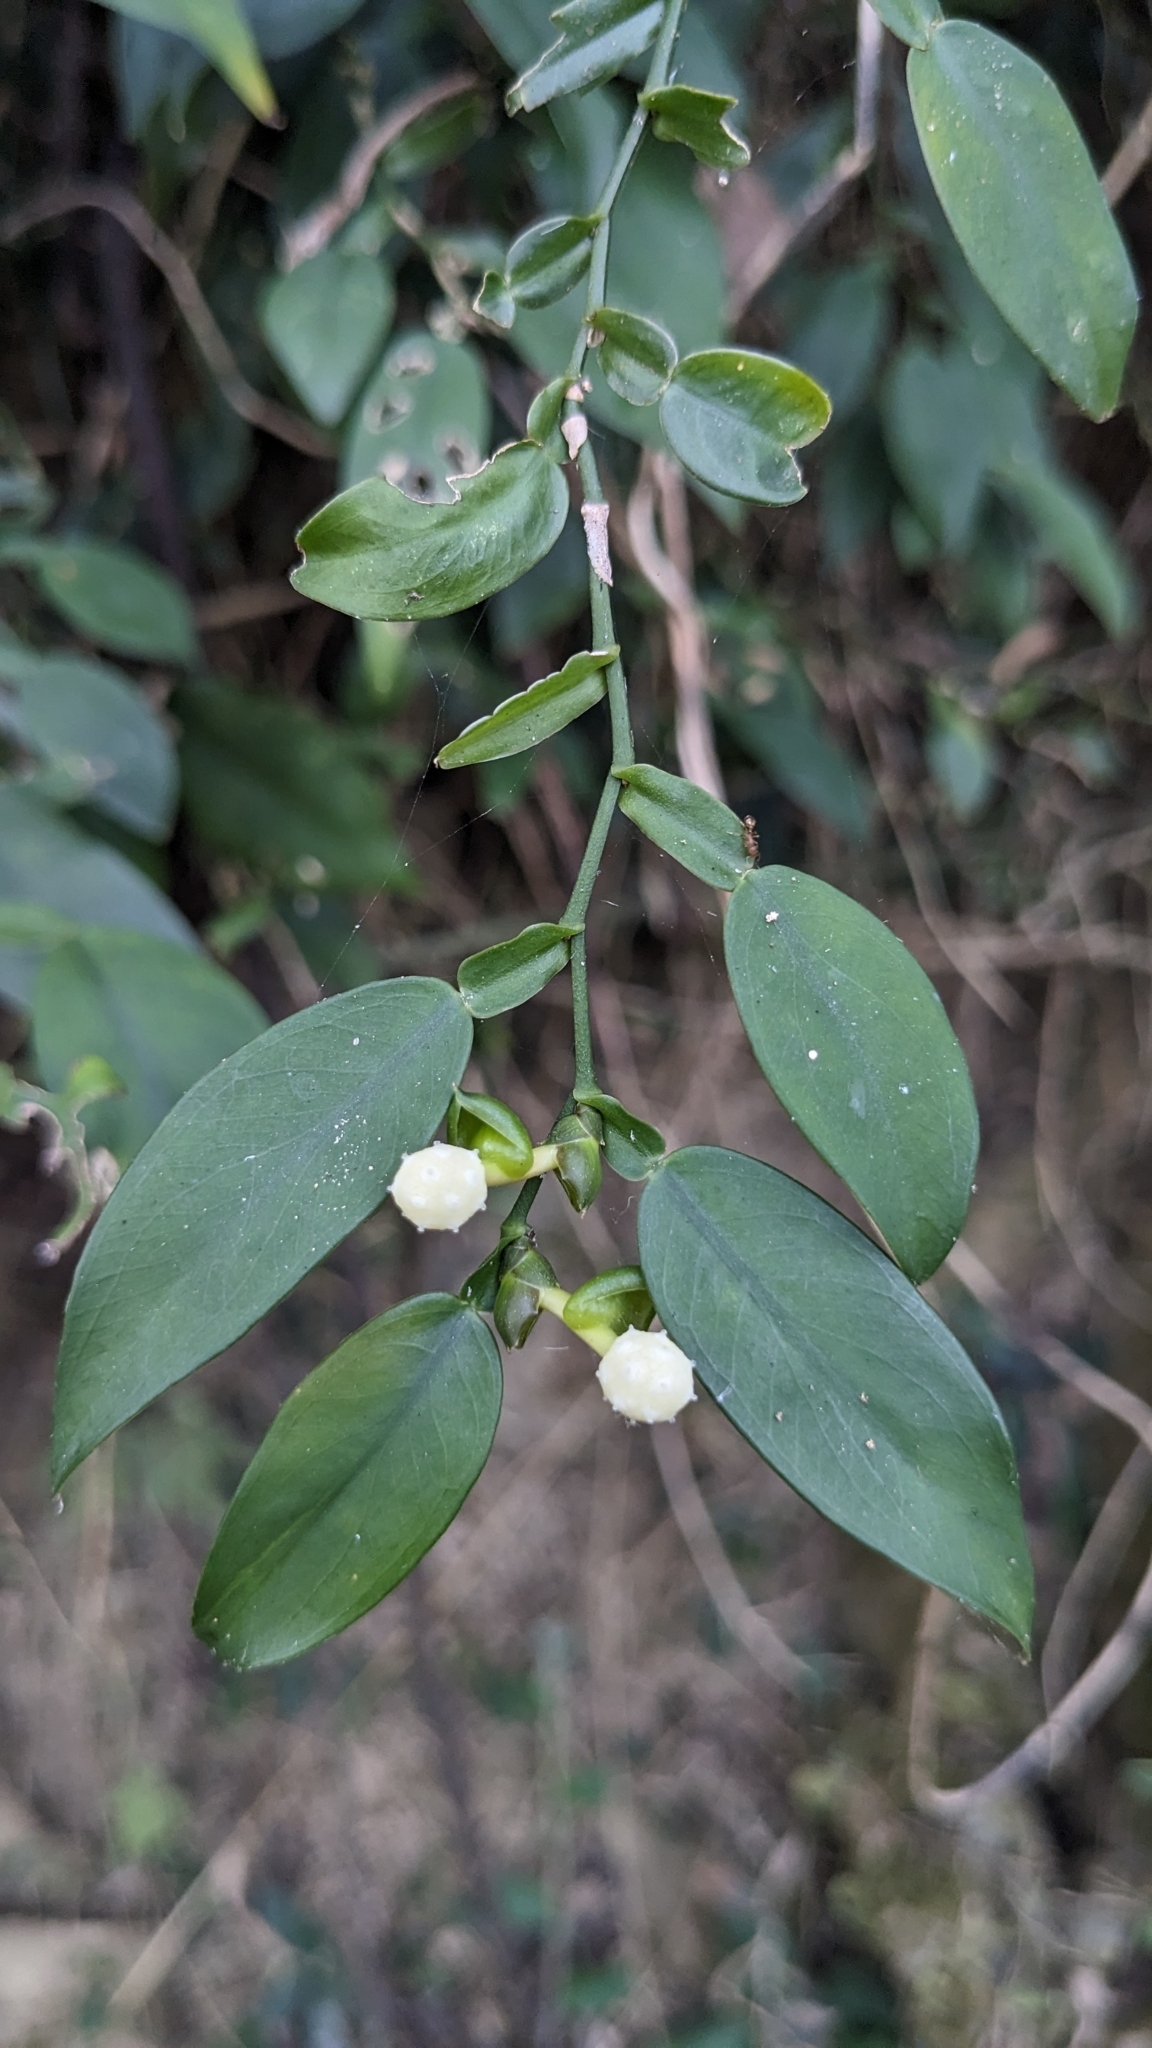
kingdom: Plantae
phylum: Tracheophyta
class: Liliopsida
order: Alismatales
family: Araceae
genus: Pothos
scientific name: Pothos chinensis
